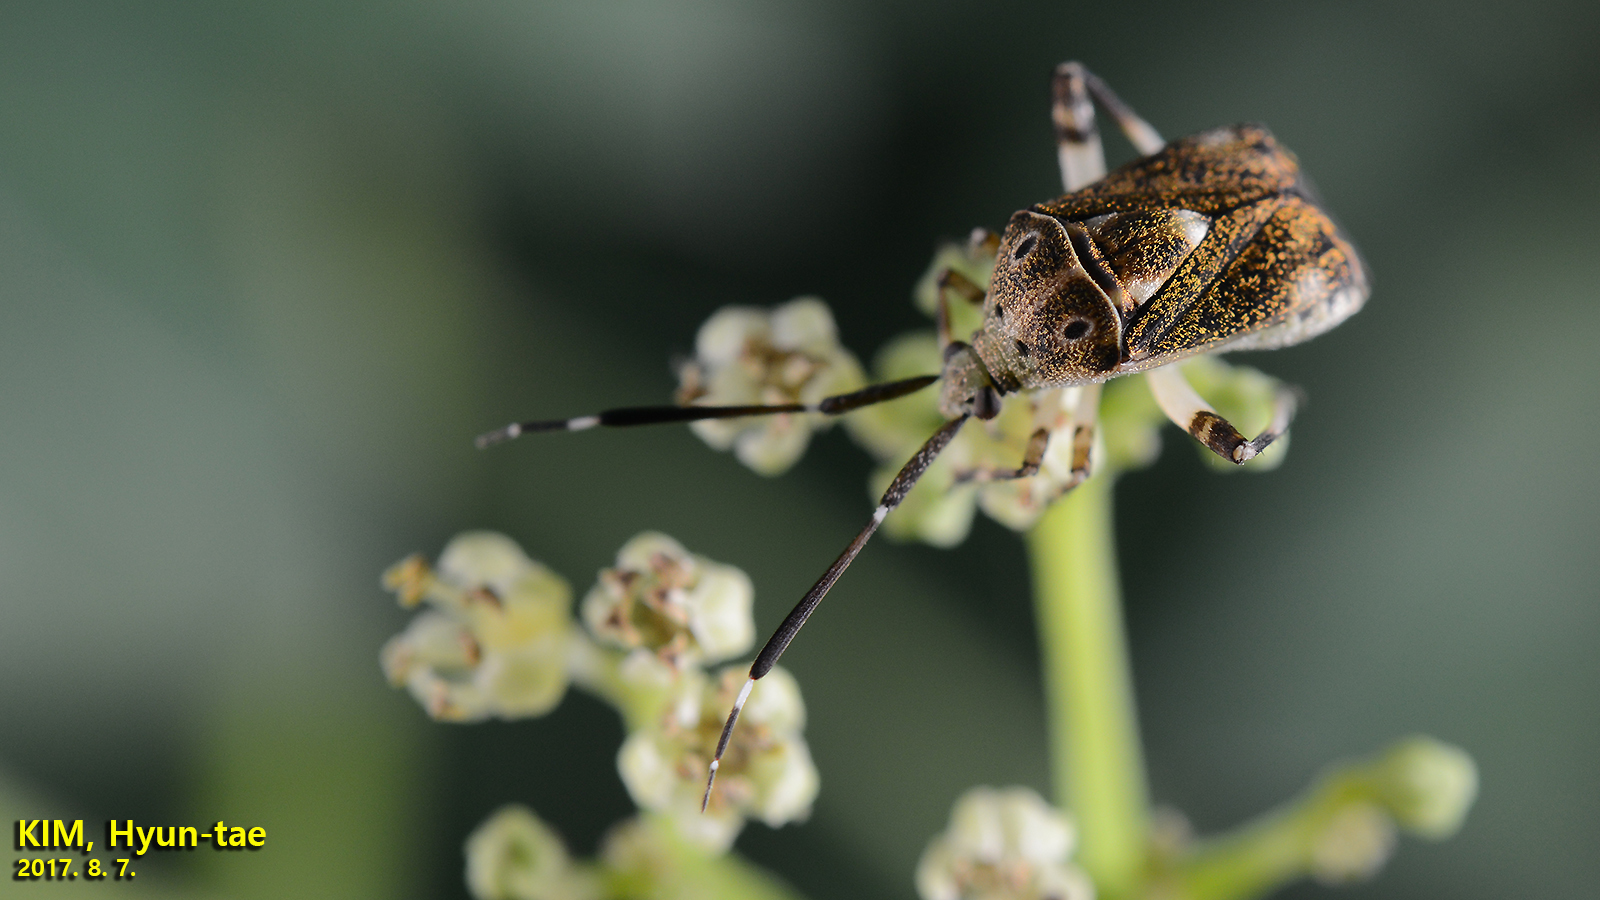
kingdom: Animalia
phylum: Arthropoda
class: Insecta
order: Hemiptera
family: Miridae
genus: Eurystylus
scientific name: Eurystylus coelestialium
